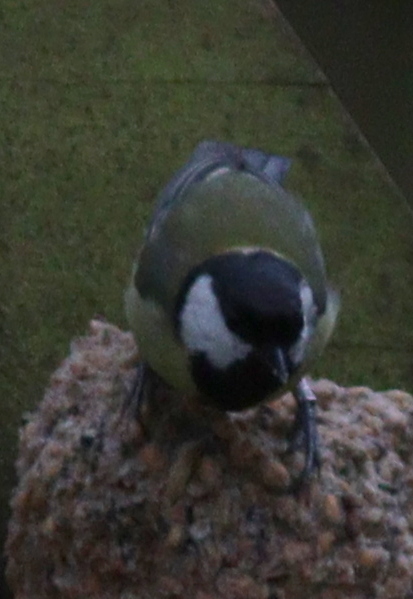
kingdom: Animalia
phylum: Chordata
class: Aves
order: Passeriformes
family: Paridae
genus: Parus
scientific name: Parus major
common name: Great tit
